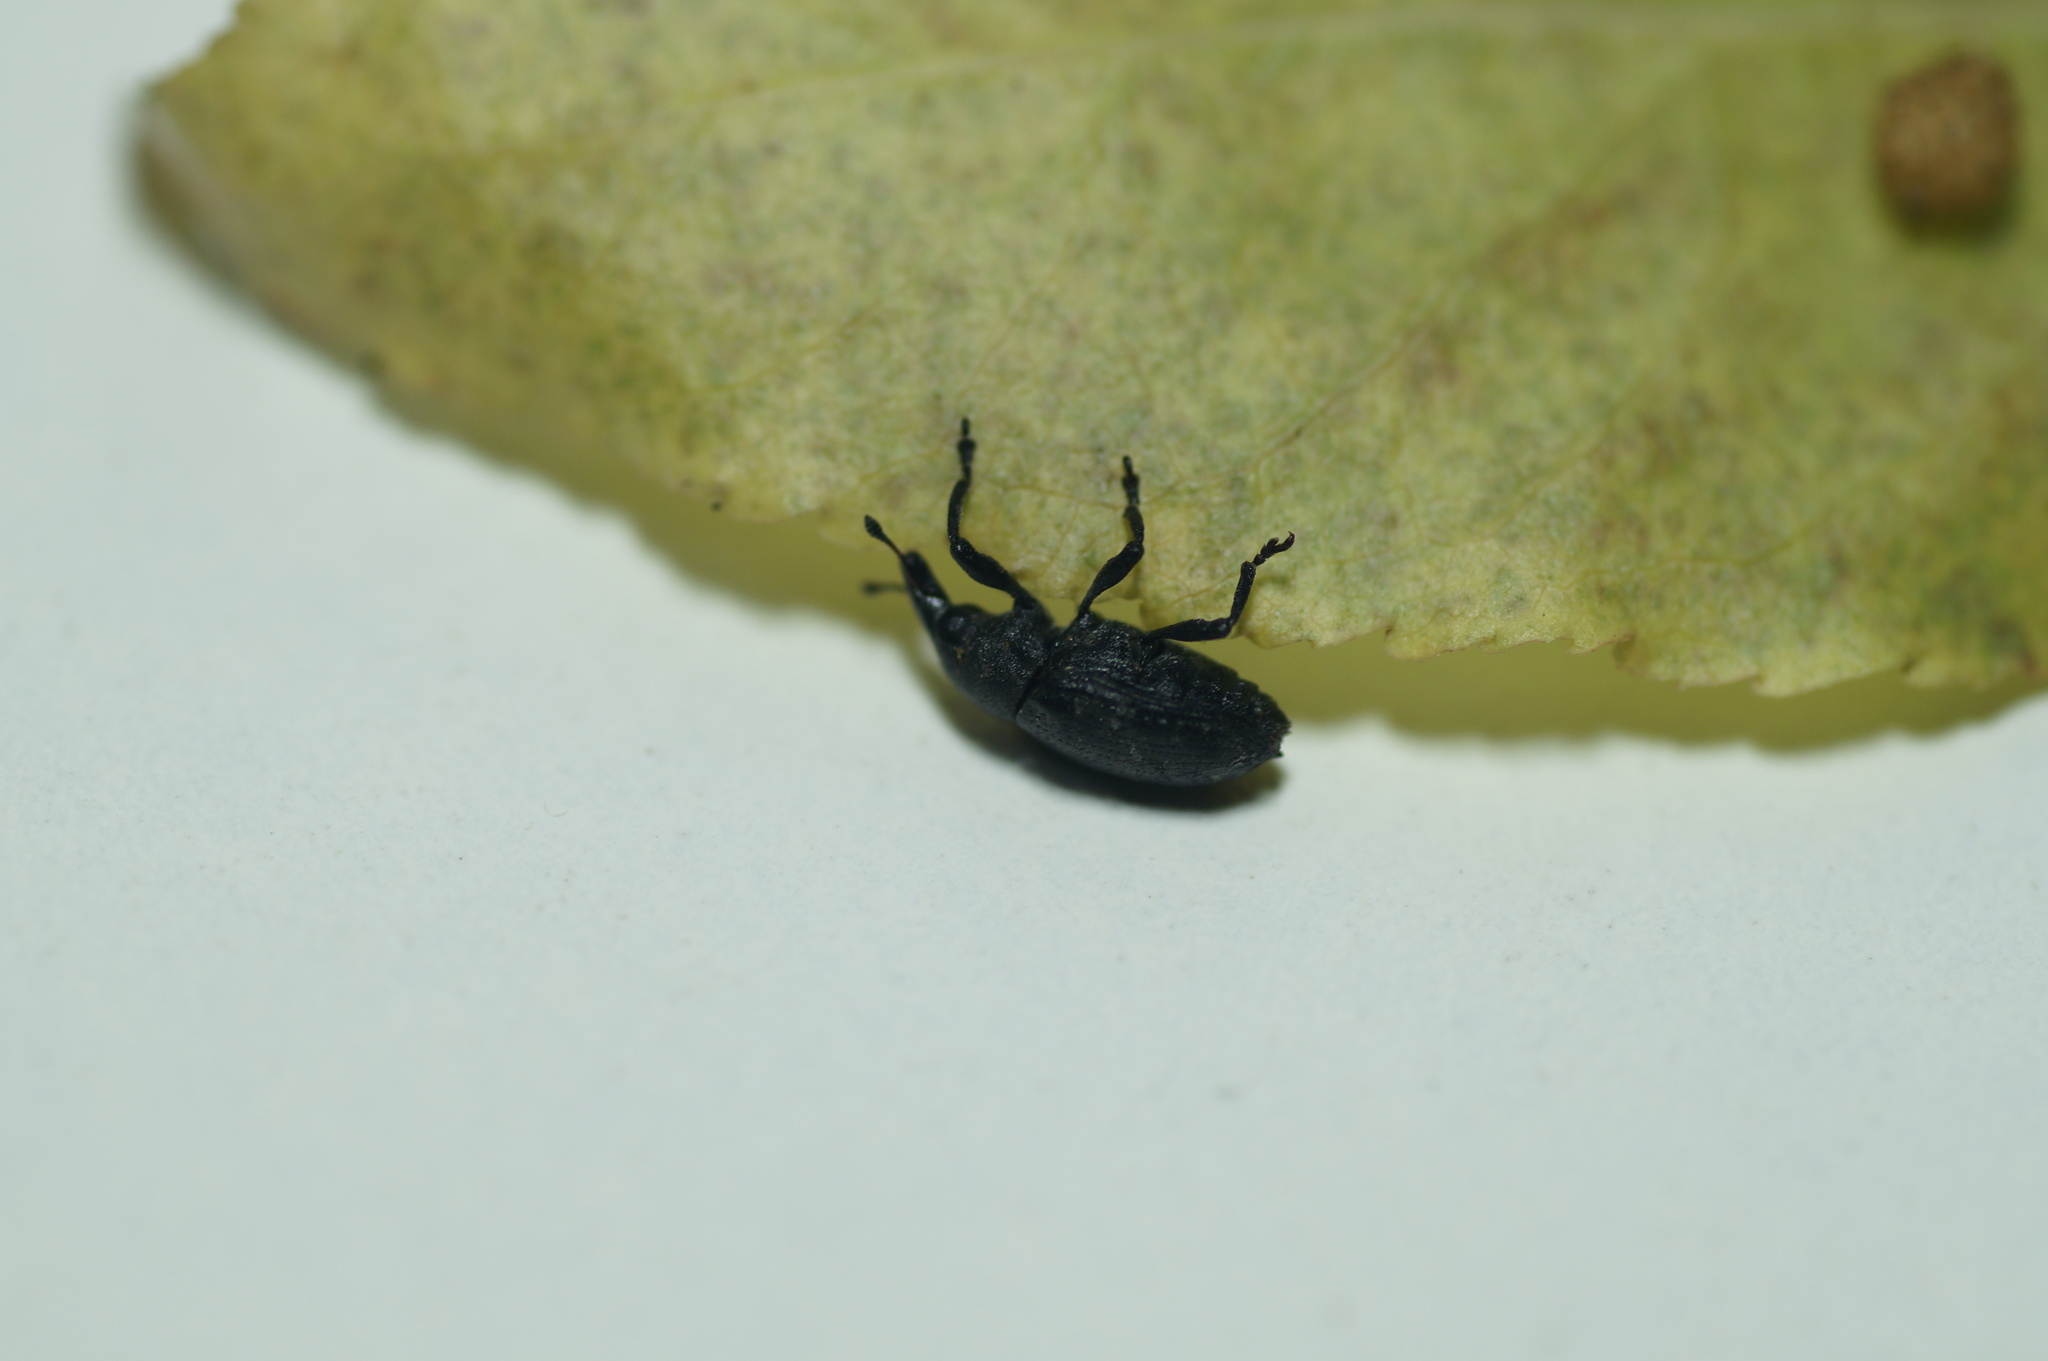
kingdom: Animalia
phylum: Arthropoda
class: Insecta
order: Coleoptera
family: Curculionidae
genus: Larinus
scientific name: Larinus turbinatus
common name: Weevil
